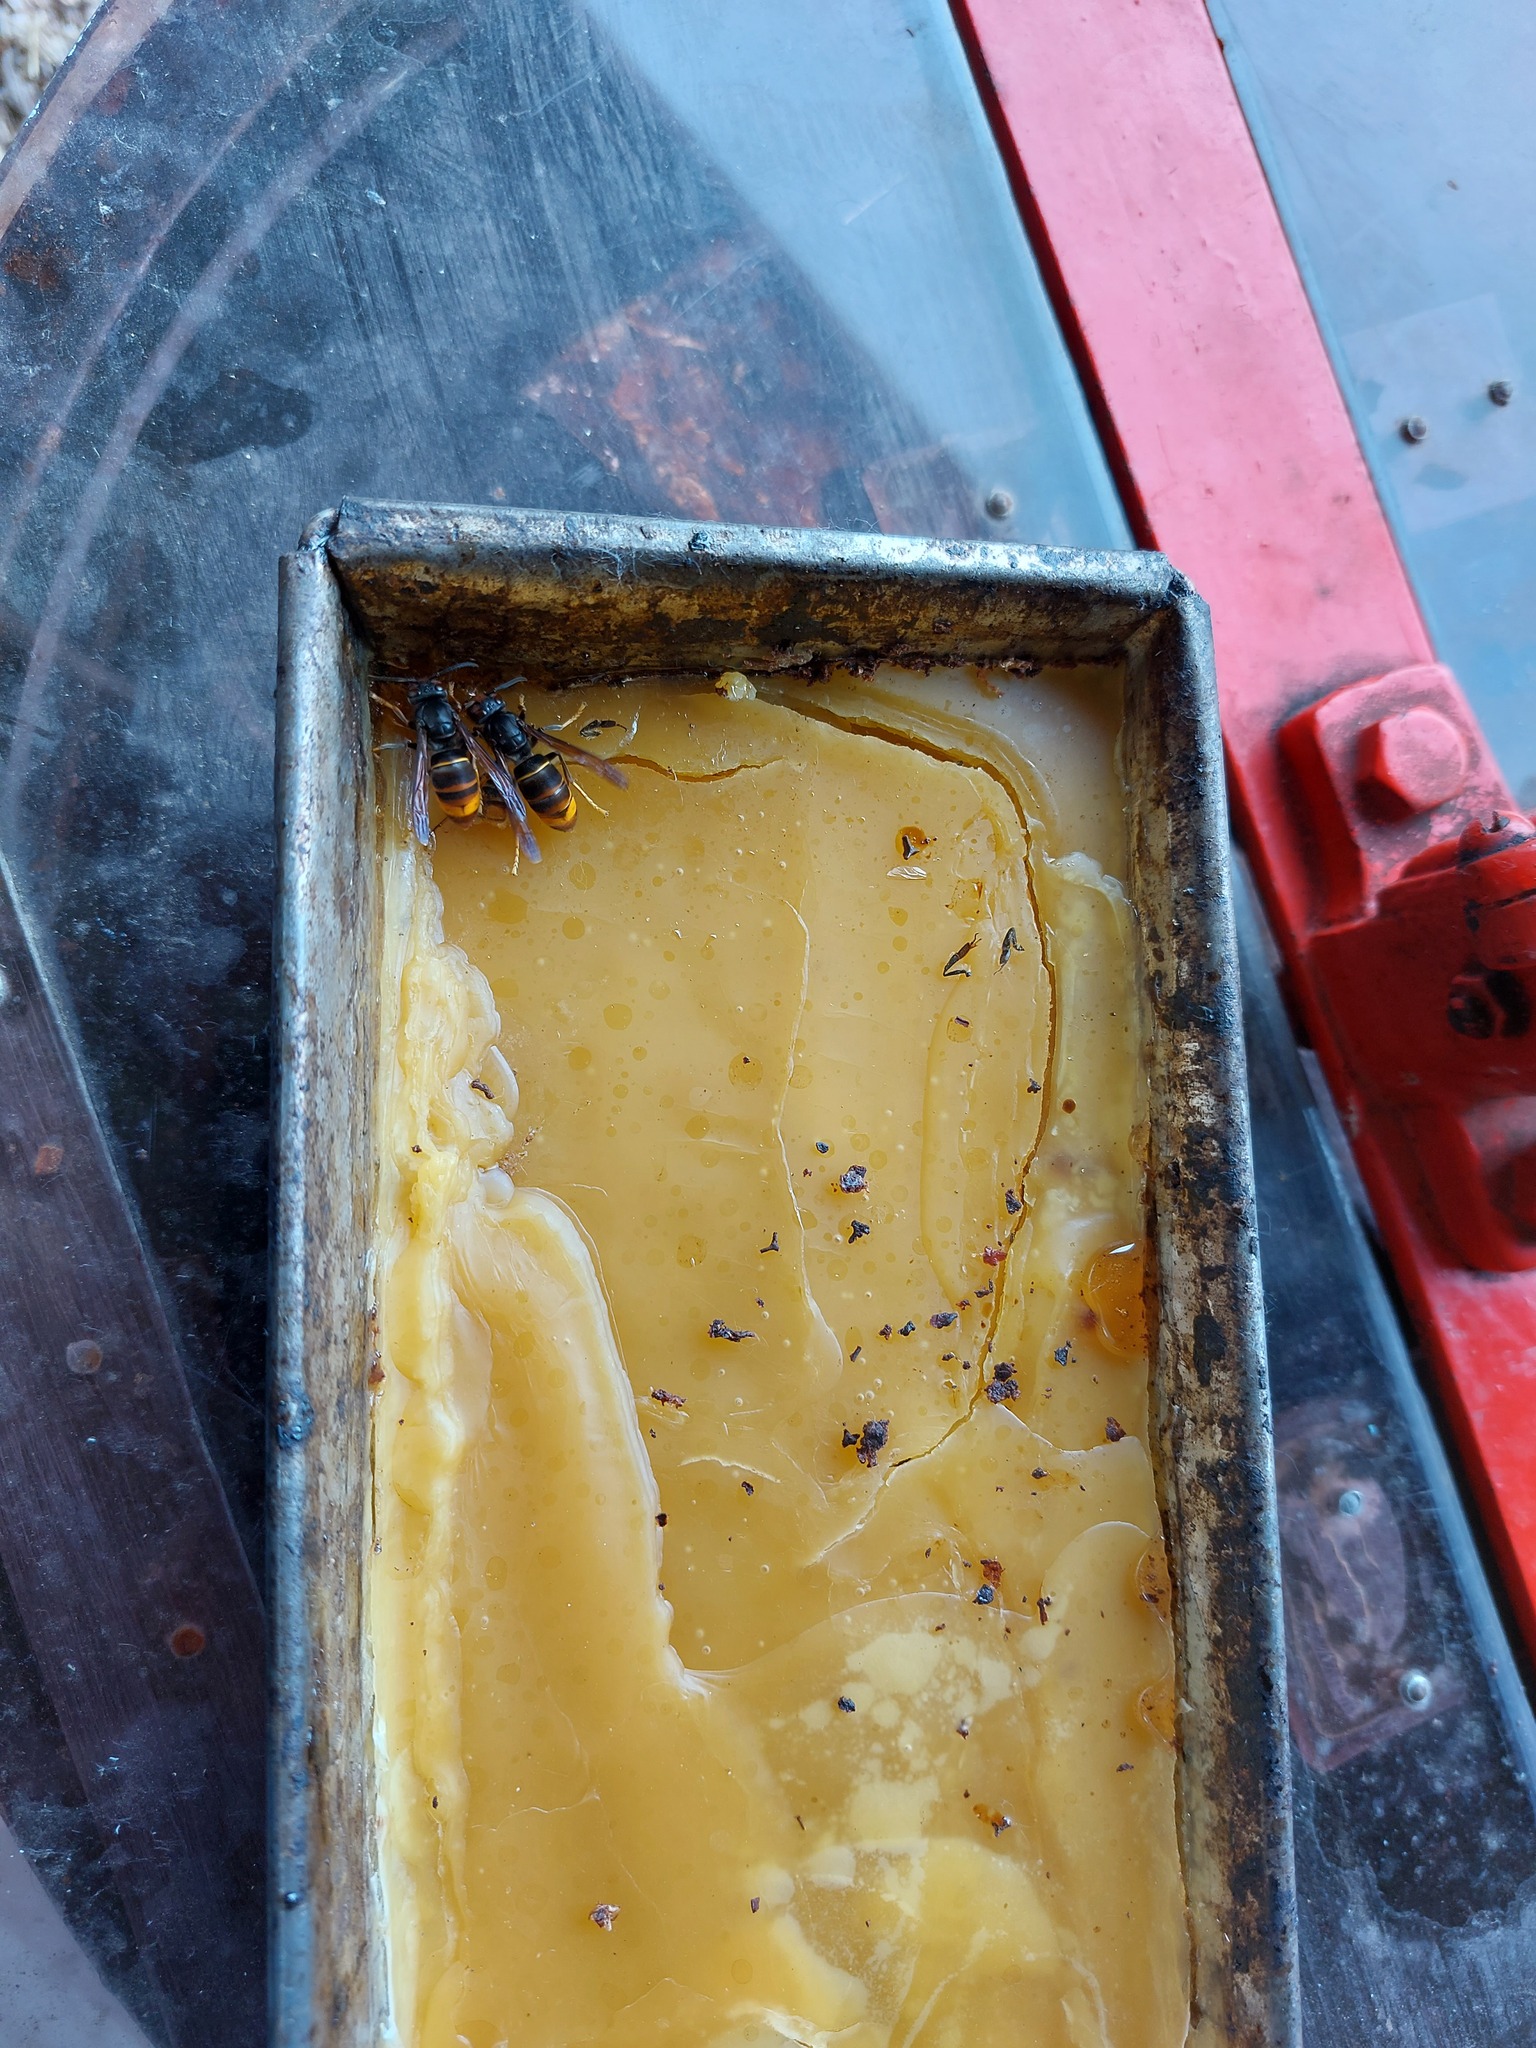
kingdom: Animalia
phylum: Arthropoda
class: Insecta
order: Hymenoptera
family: Vespidae
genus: Vespa
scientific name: Vespa velutina
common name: Asian hornet
